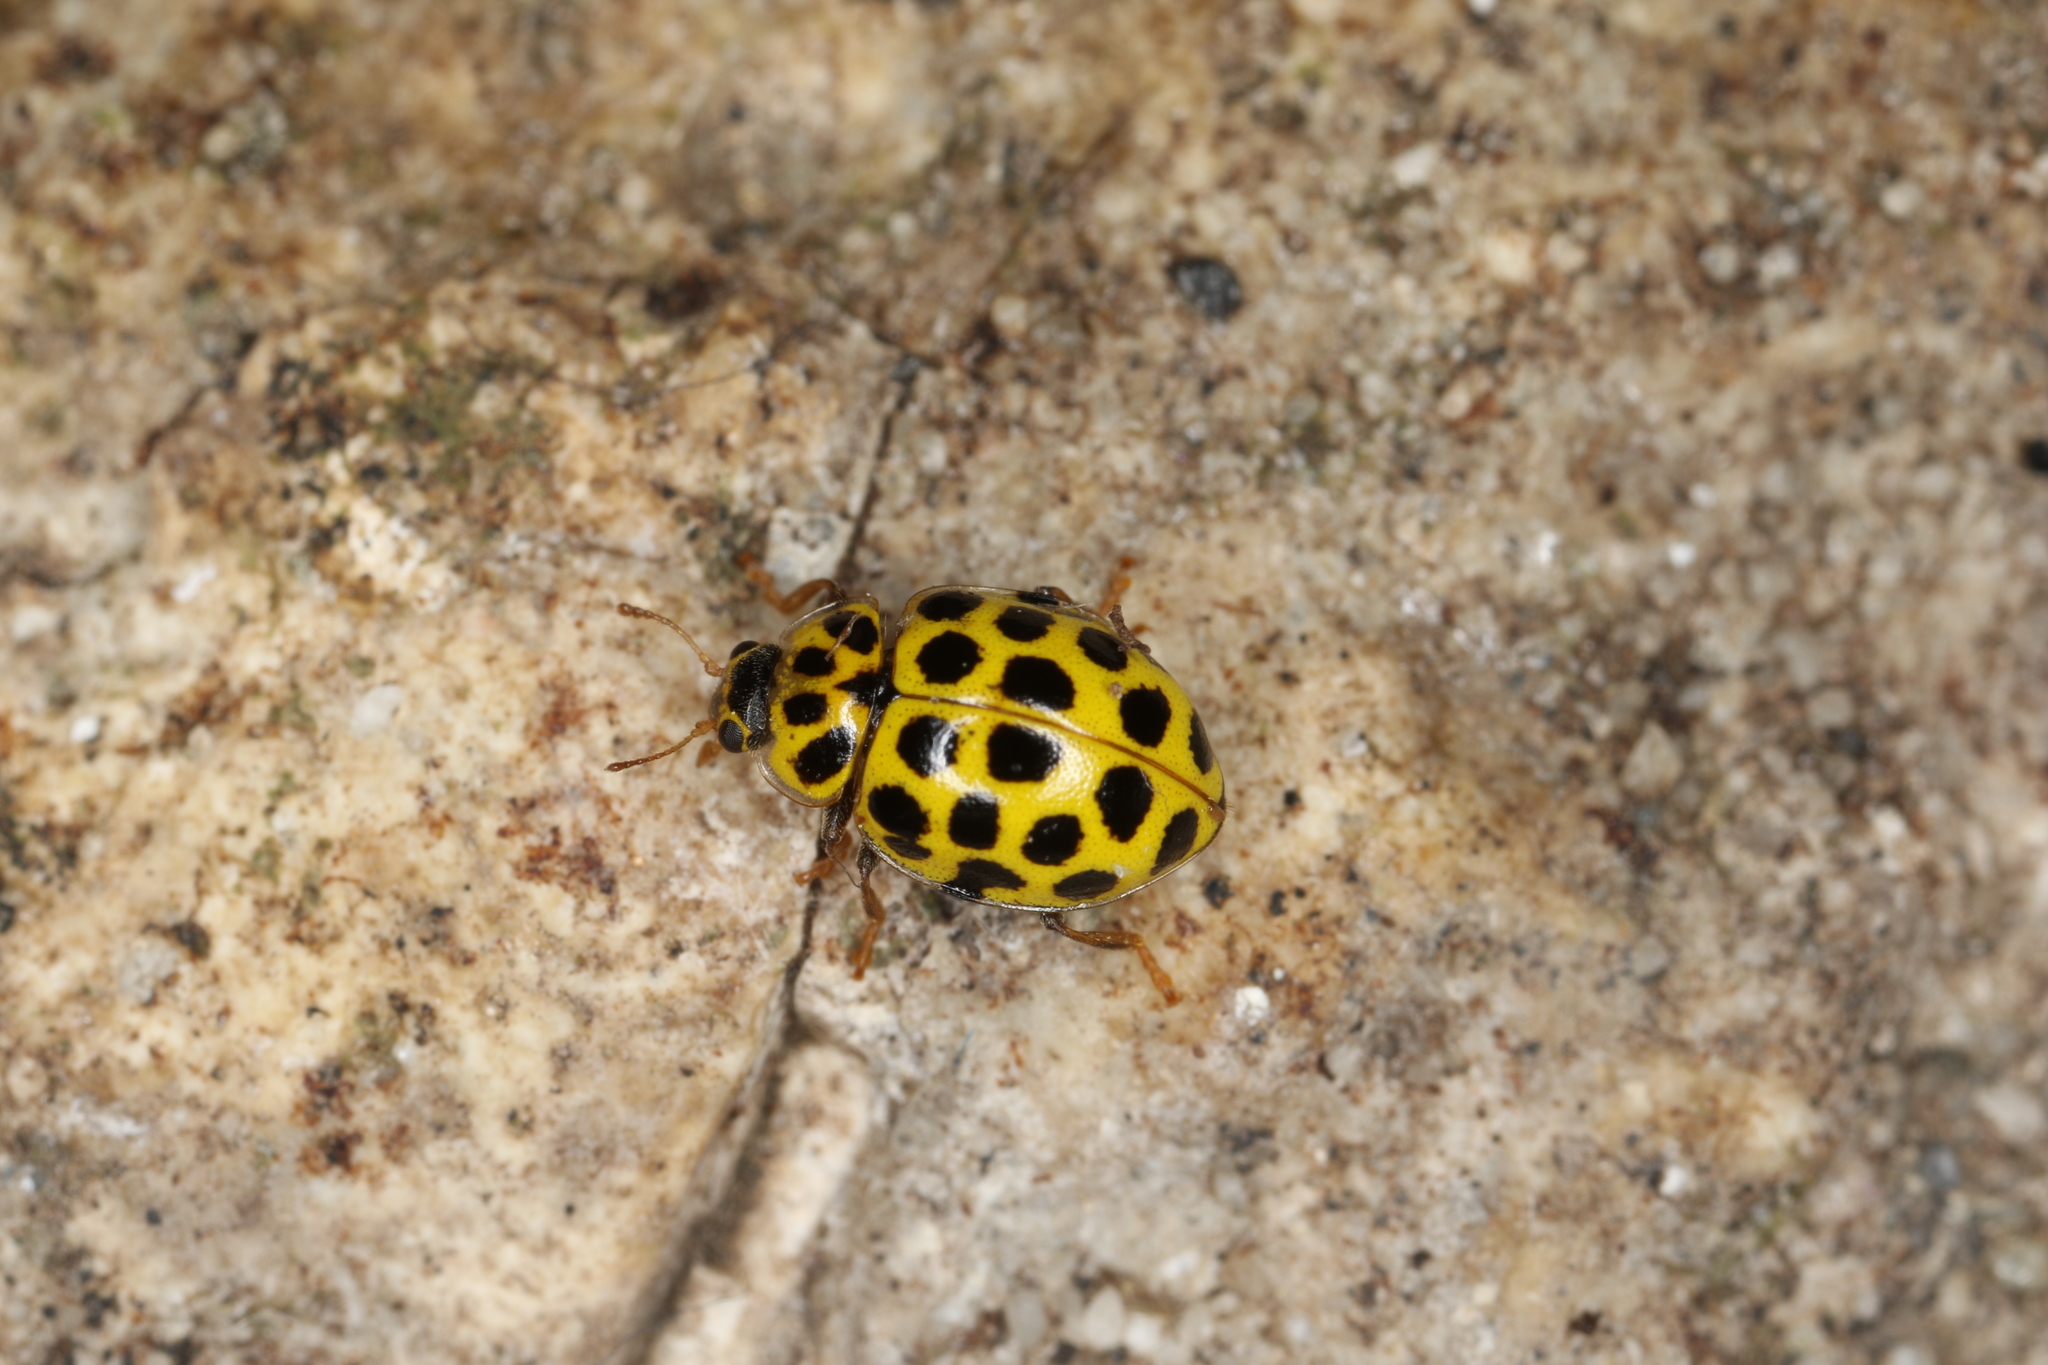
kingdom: Animalia
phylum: Arthropoda
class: Insecta
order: Coleoptera
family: Coccinellidae
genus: Psyllobora
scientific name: Psyllobora vigintiduopunctata
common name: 22-spot ladybird
